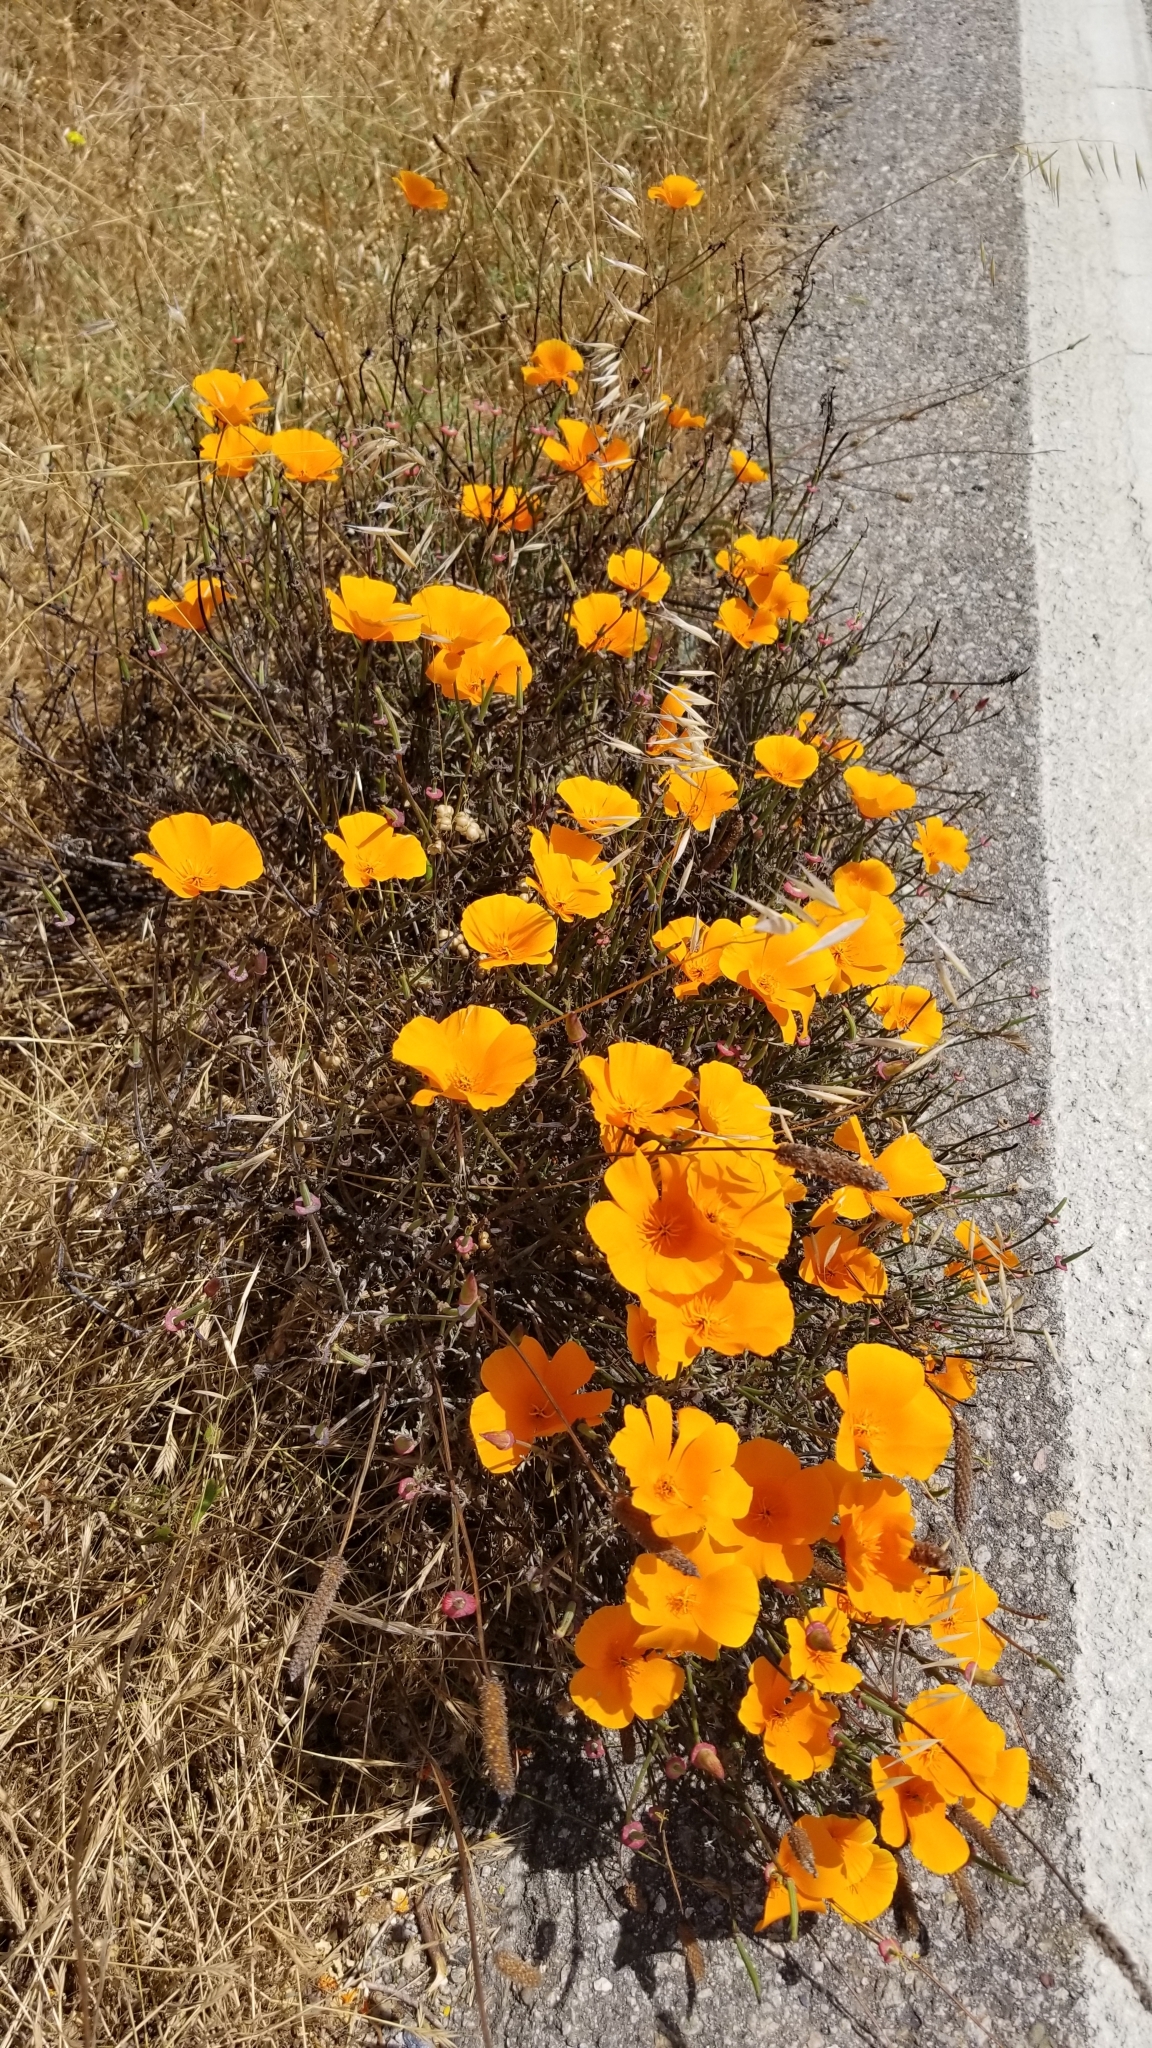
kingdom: Plantae
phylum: Tracheophyta
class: Magnoliopsida
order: Ranunculales
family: Papaveraceae
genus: Eschscholzia
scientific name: Eschscholzia californica
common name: California poppy
